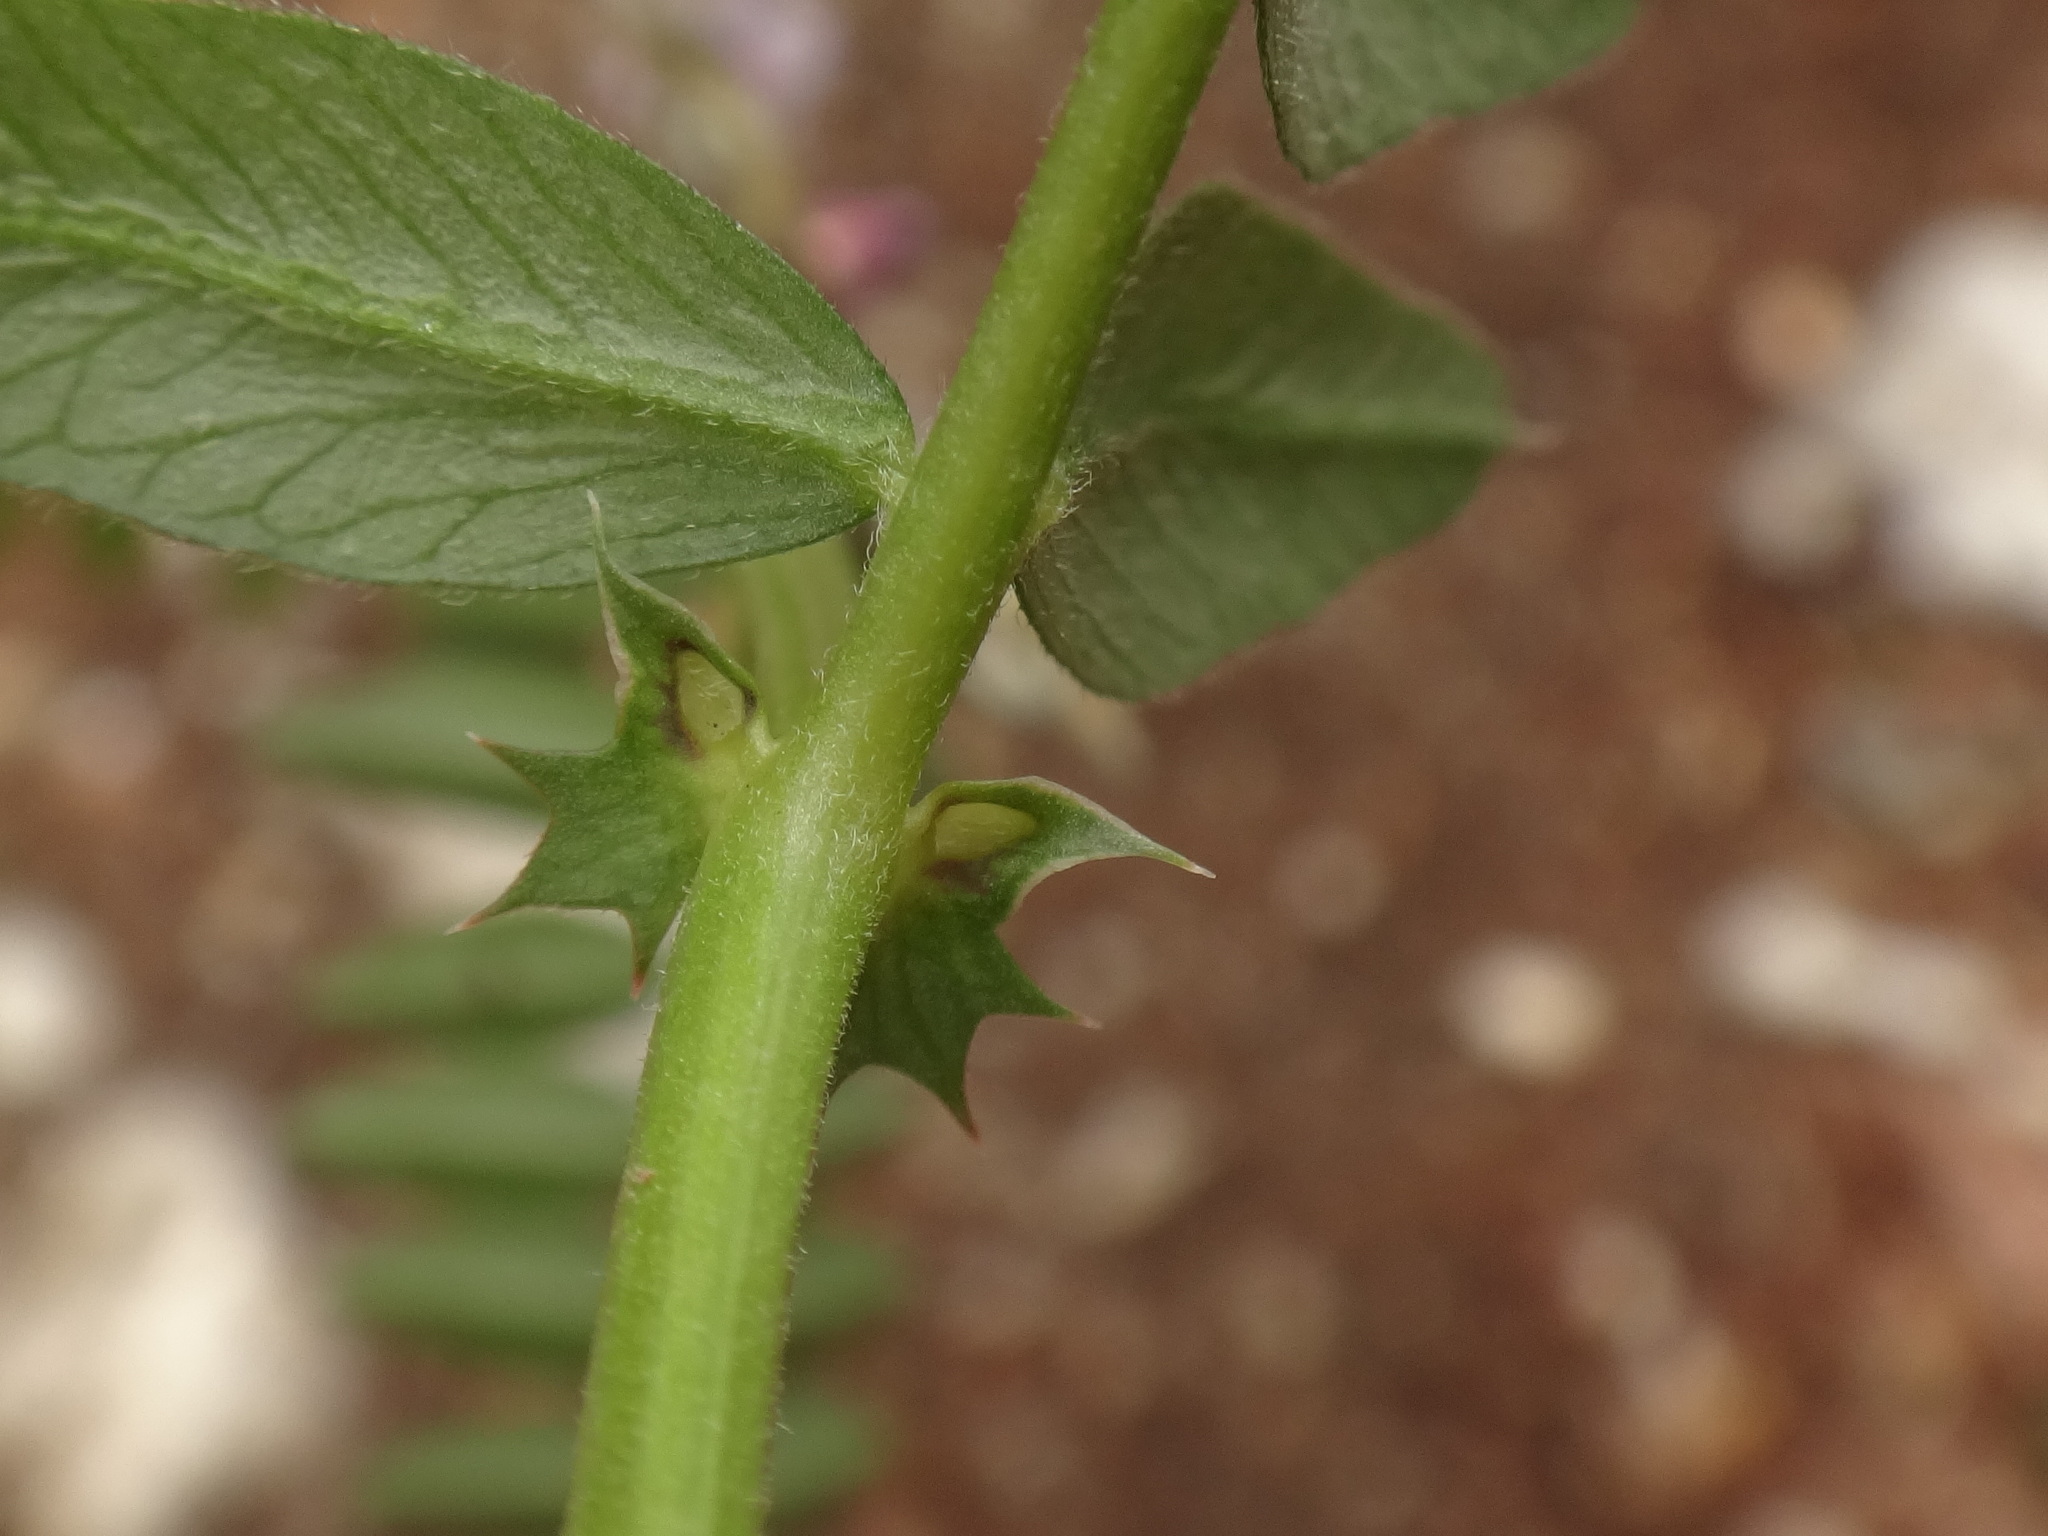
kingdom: Plantae
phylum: Tracheophyta
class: Magnoliopsida
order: Fabales
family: Fabaceae
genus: Vicia
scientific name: Vicia sepium
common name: Bush vetch
